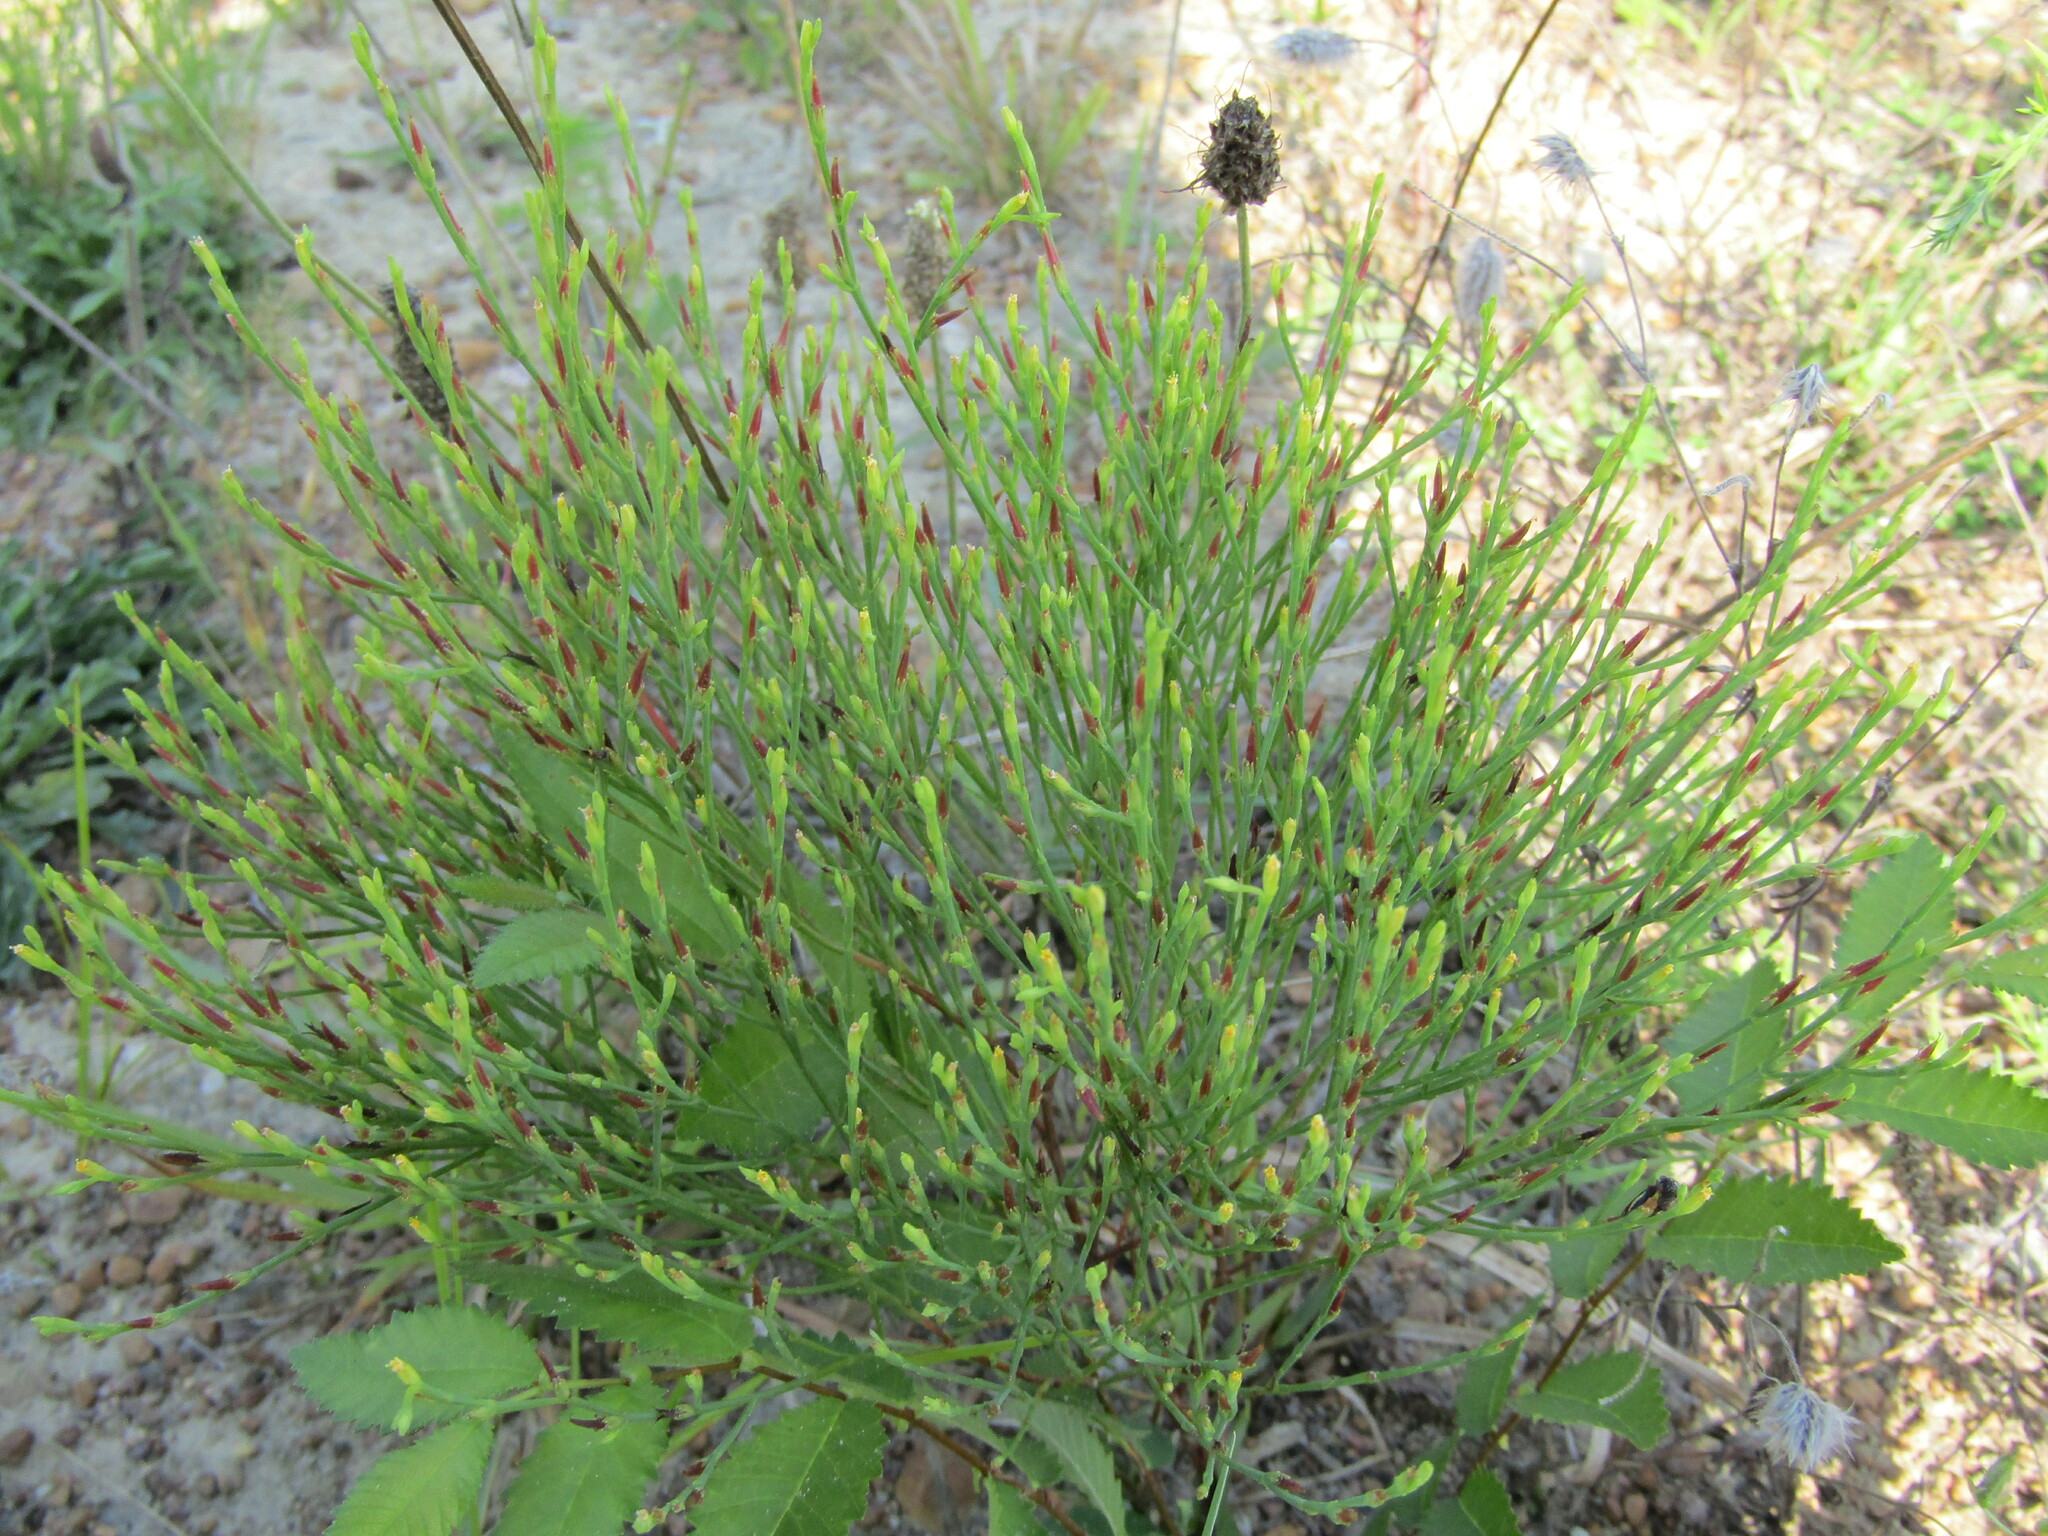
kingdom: Plantae
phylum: Tracheophyta
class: Magnoliopsida
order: Malpighiales
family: Hypericaceae
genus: Hypericum
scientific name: Hypericum gentianoides
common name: Gentian-leaved st. john's-wort
